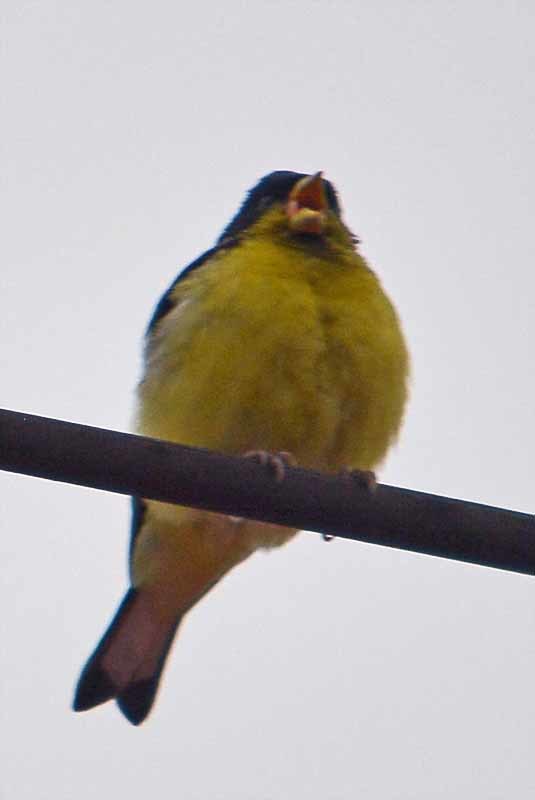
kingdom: Animalia
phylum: Chordata
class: Aves
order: Passeriformes
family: Fringillidae
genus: Spinus
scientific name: Spinus psaltria
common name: Lesser goldfinch
